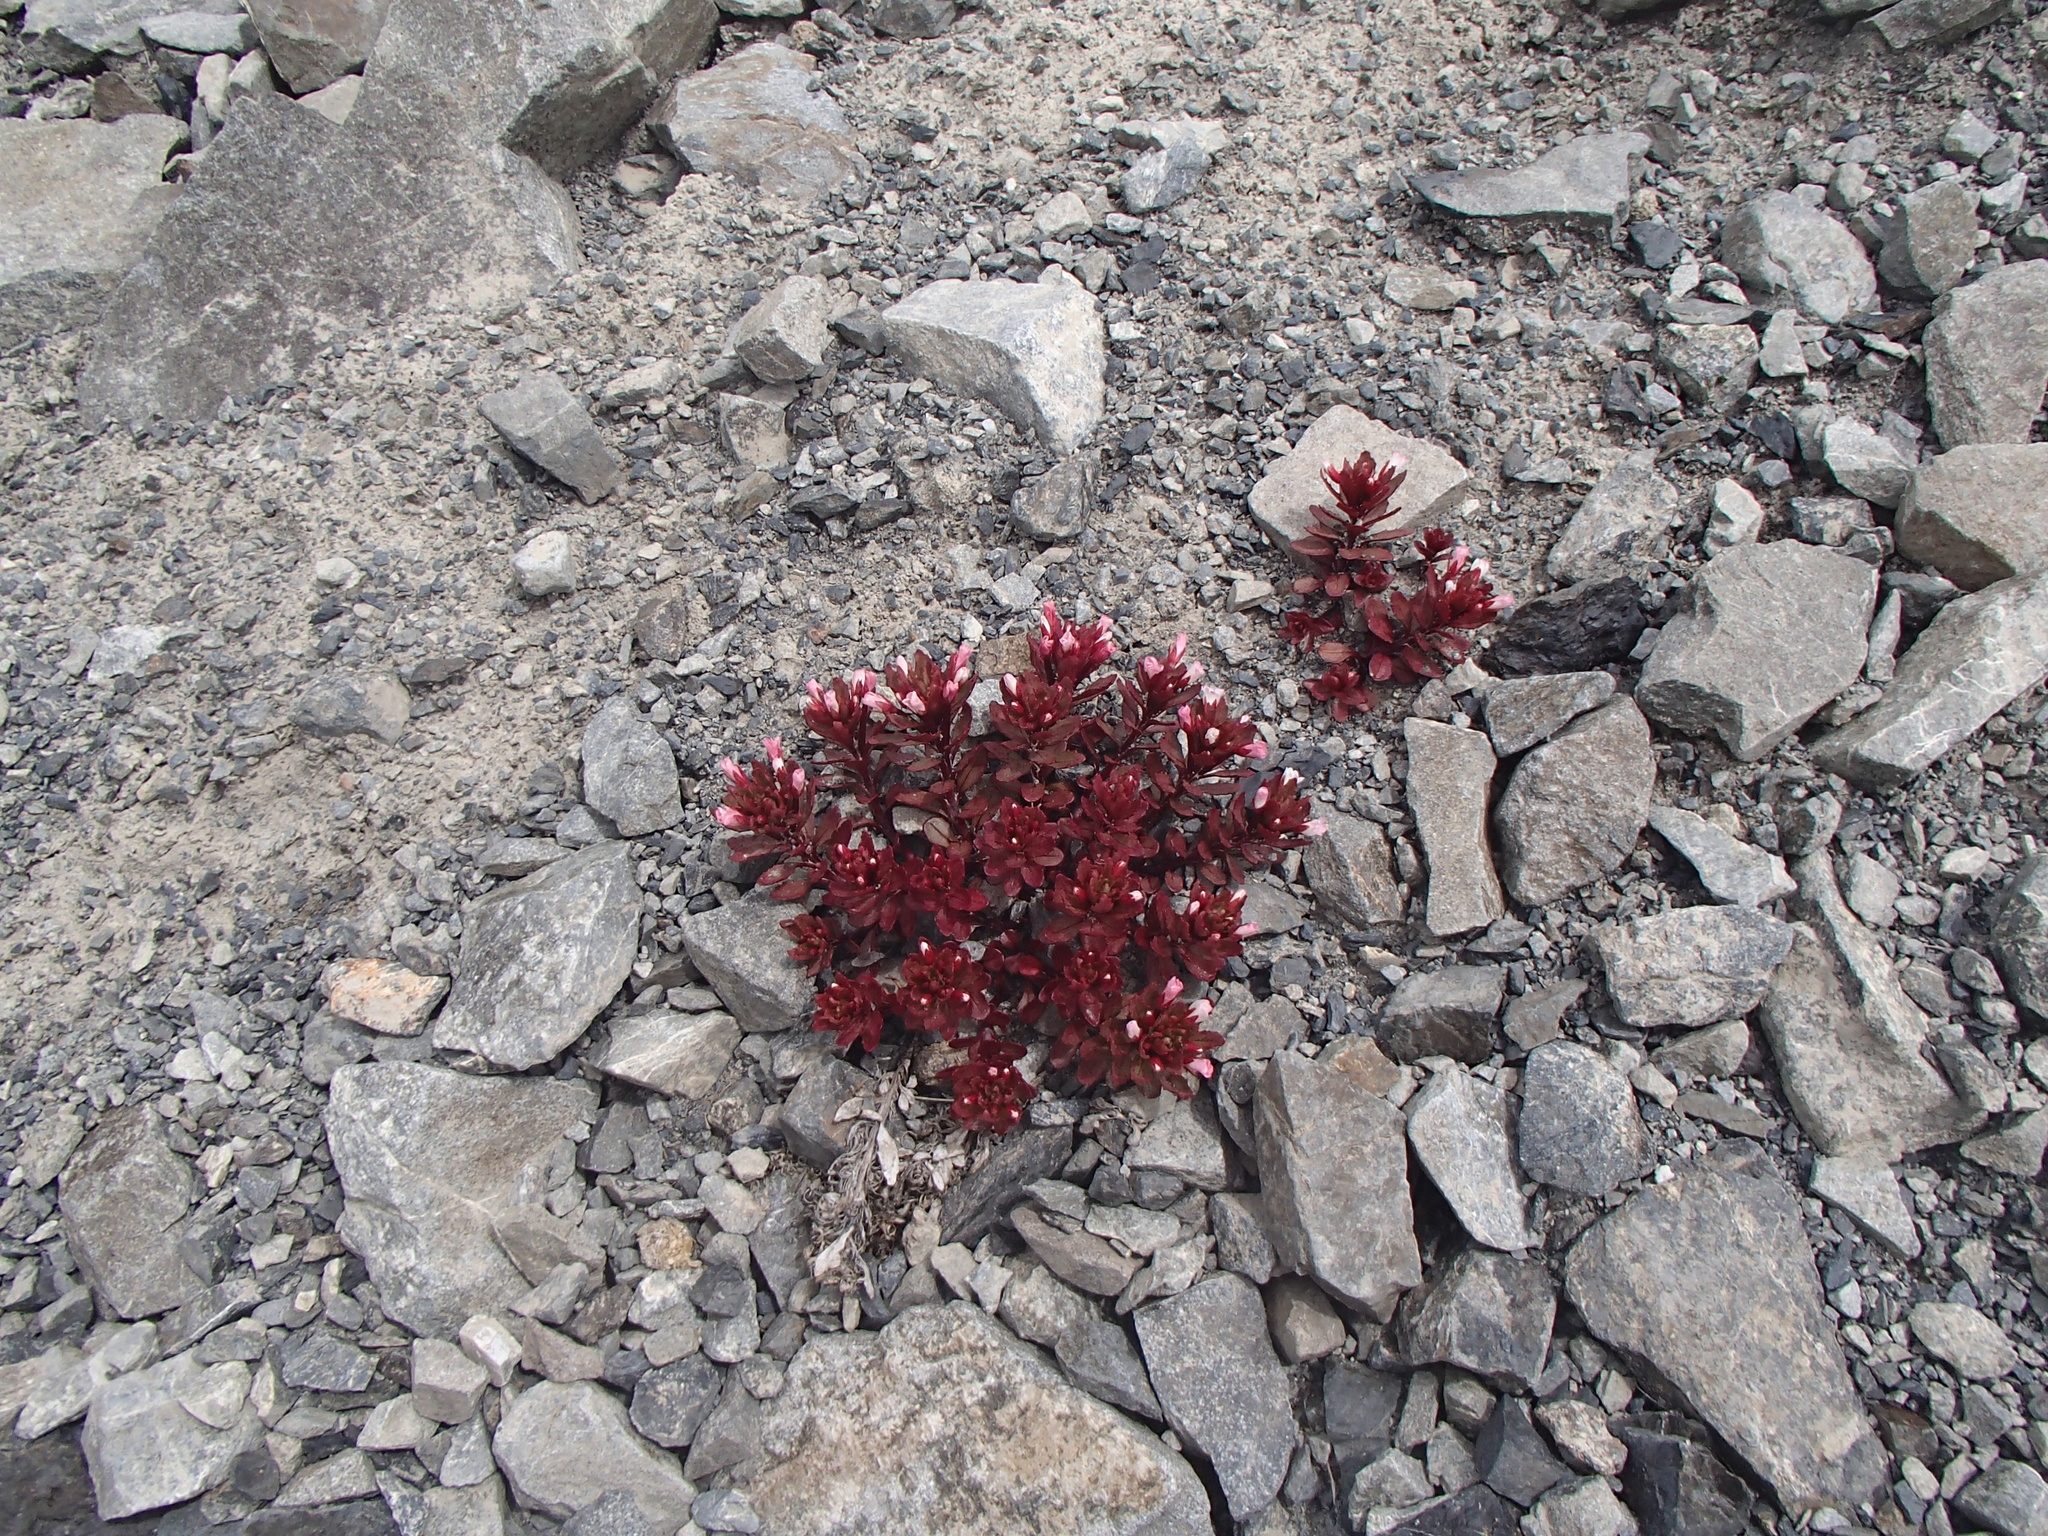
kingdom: Plantae
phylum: Tracheophyta
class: Magnoliopsida
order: Myrtales
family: Onagraceae
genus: Epilobium
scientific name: Epilobium pycnostachyum
